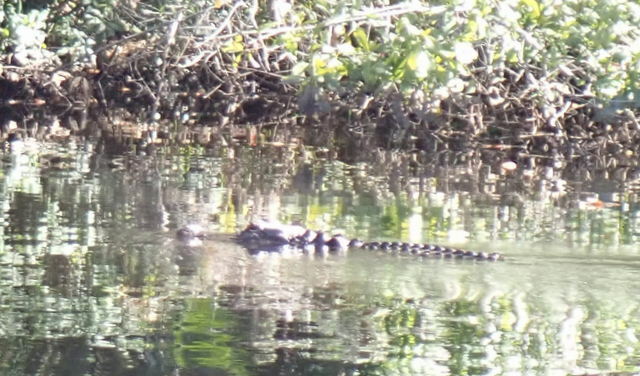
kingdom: Animalia
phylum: Chordata
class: Crocodylia
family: Alligatoridae
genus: Alligator
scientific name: Alligator mississippiensis
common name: American alligator
